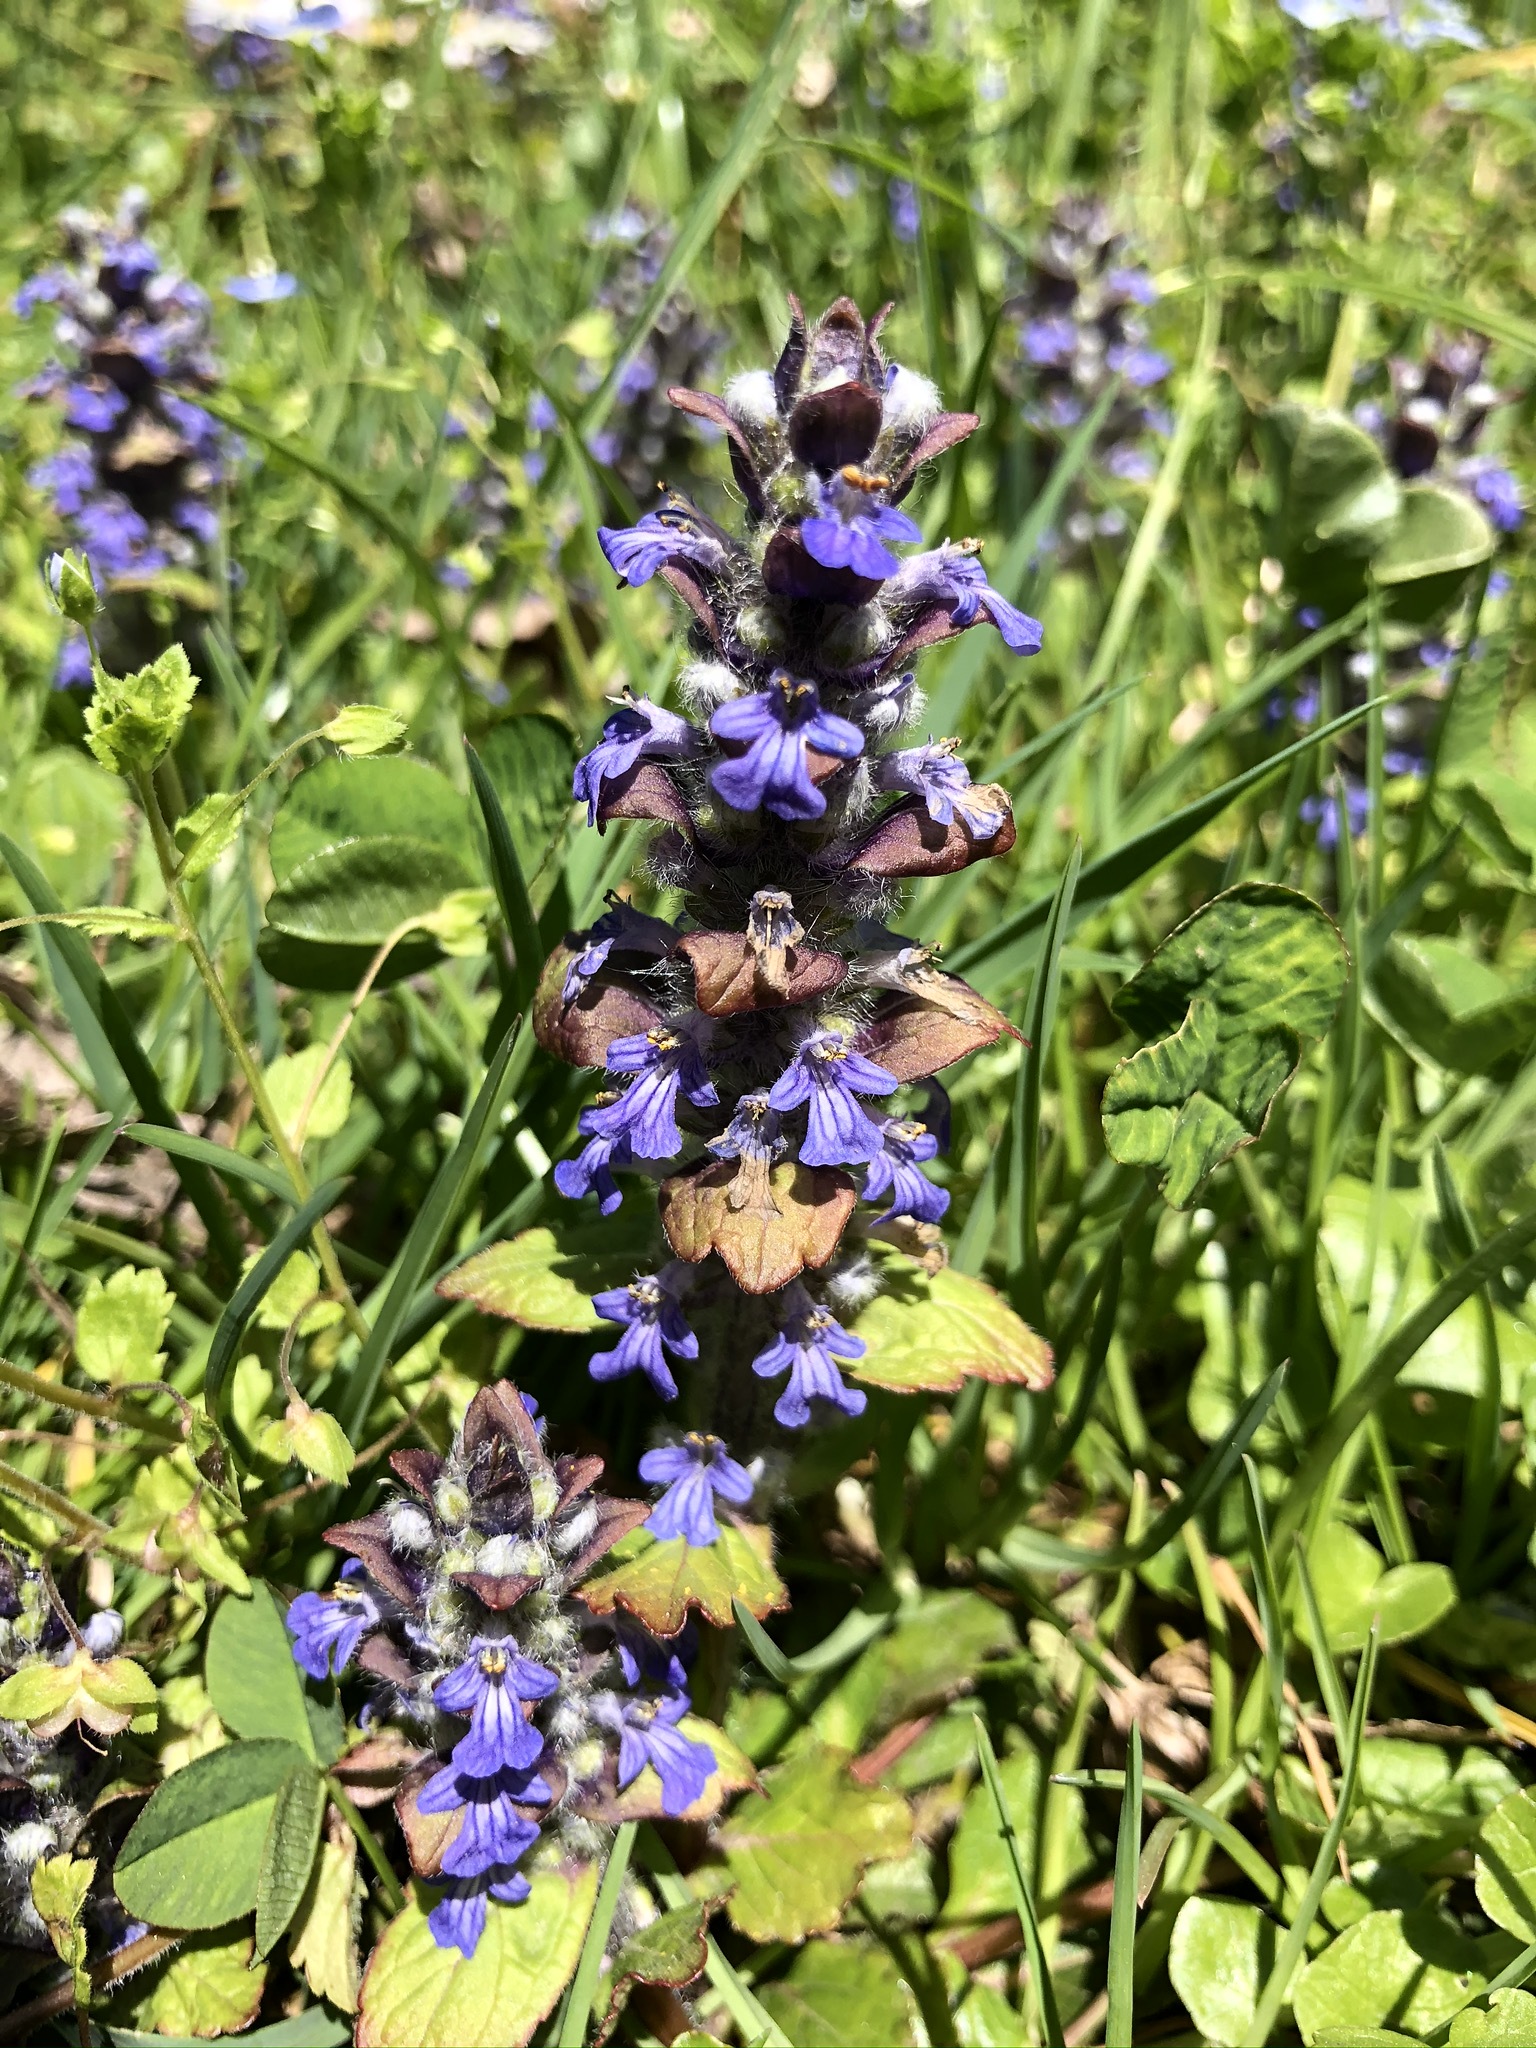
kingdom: Plantae
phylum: Tracheophyta
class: Magnoliopsida
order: Lamiales
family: Lamiaceae
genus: Ajuga
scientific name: Ajuga reptans
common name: Bugle
